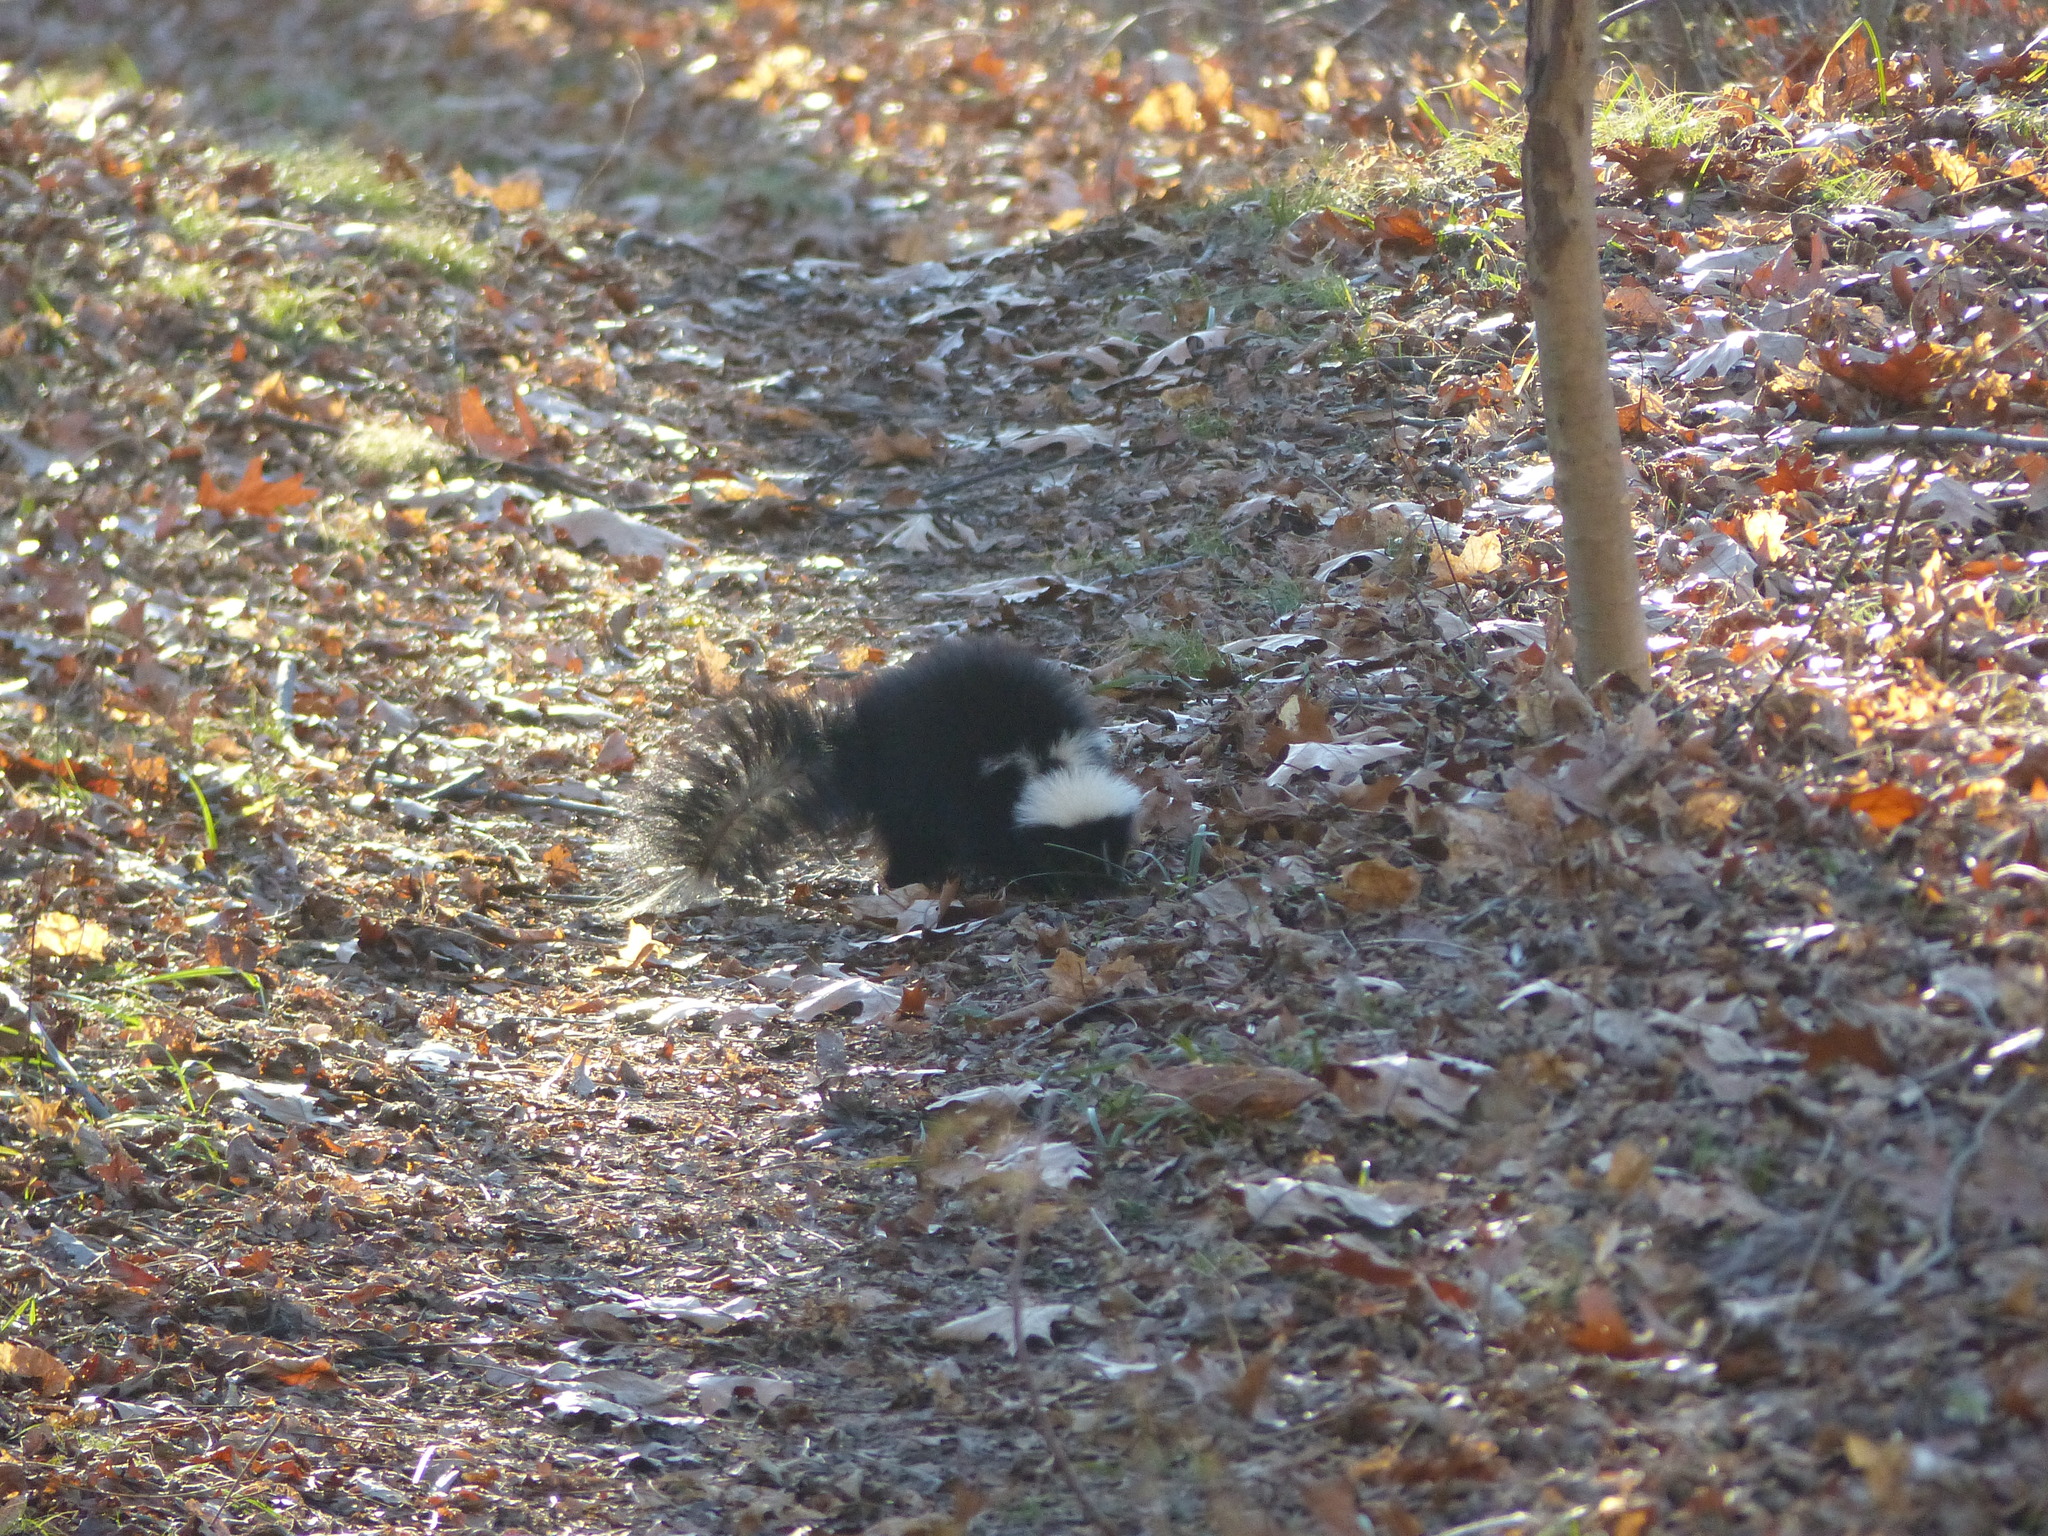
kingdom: Animalia
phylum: Chordata
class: Mammalia
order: Carnivora
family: Mephitidae
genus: Mephitis
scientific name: Mephitis mephitis
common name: Striped skunk
